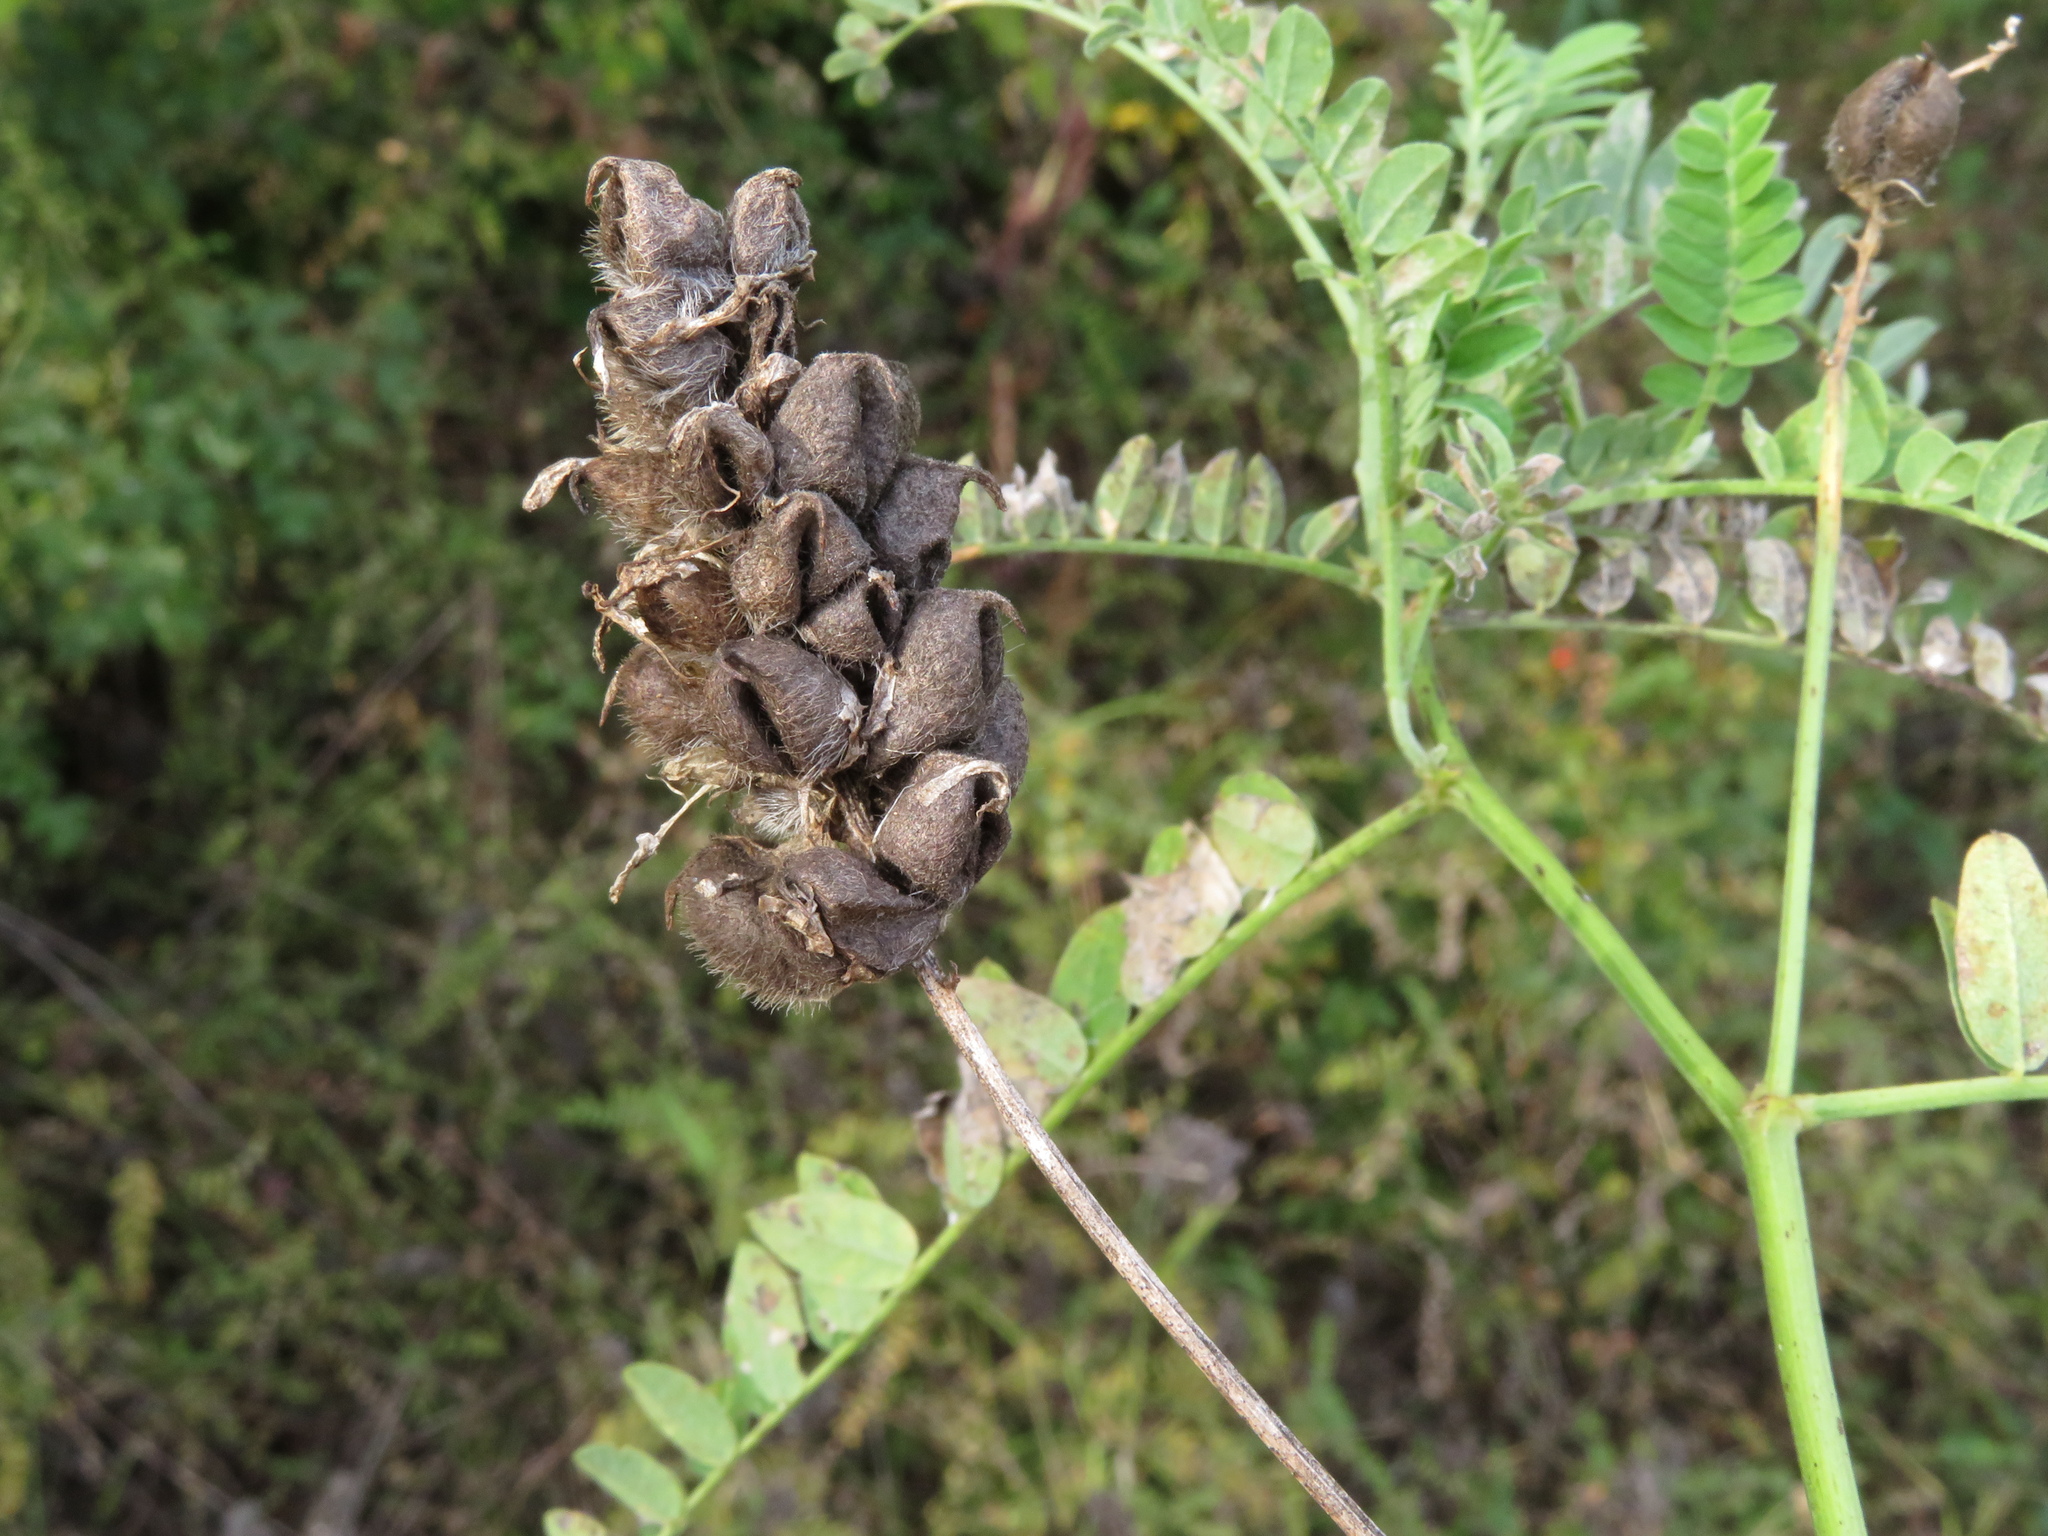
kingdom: Plantae
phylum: Tracheophyta
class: Magnoliopsida
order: Fabales
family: Fabaceae
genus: Astragalus
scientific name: Astragalus cicer
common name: Chick-pea milk-vetch
